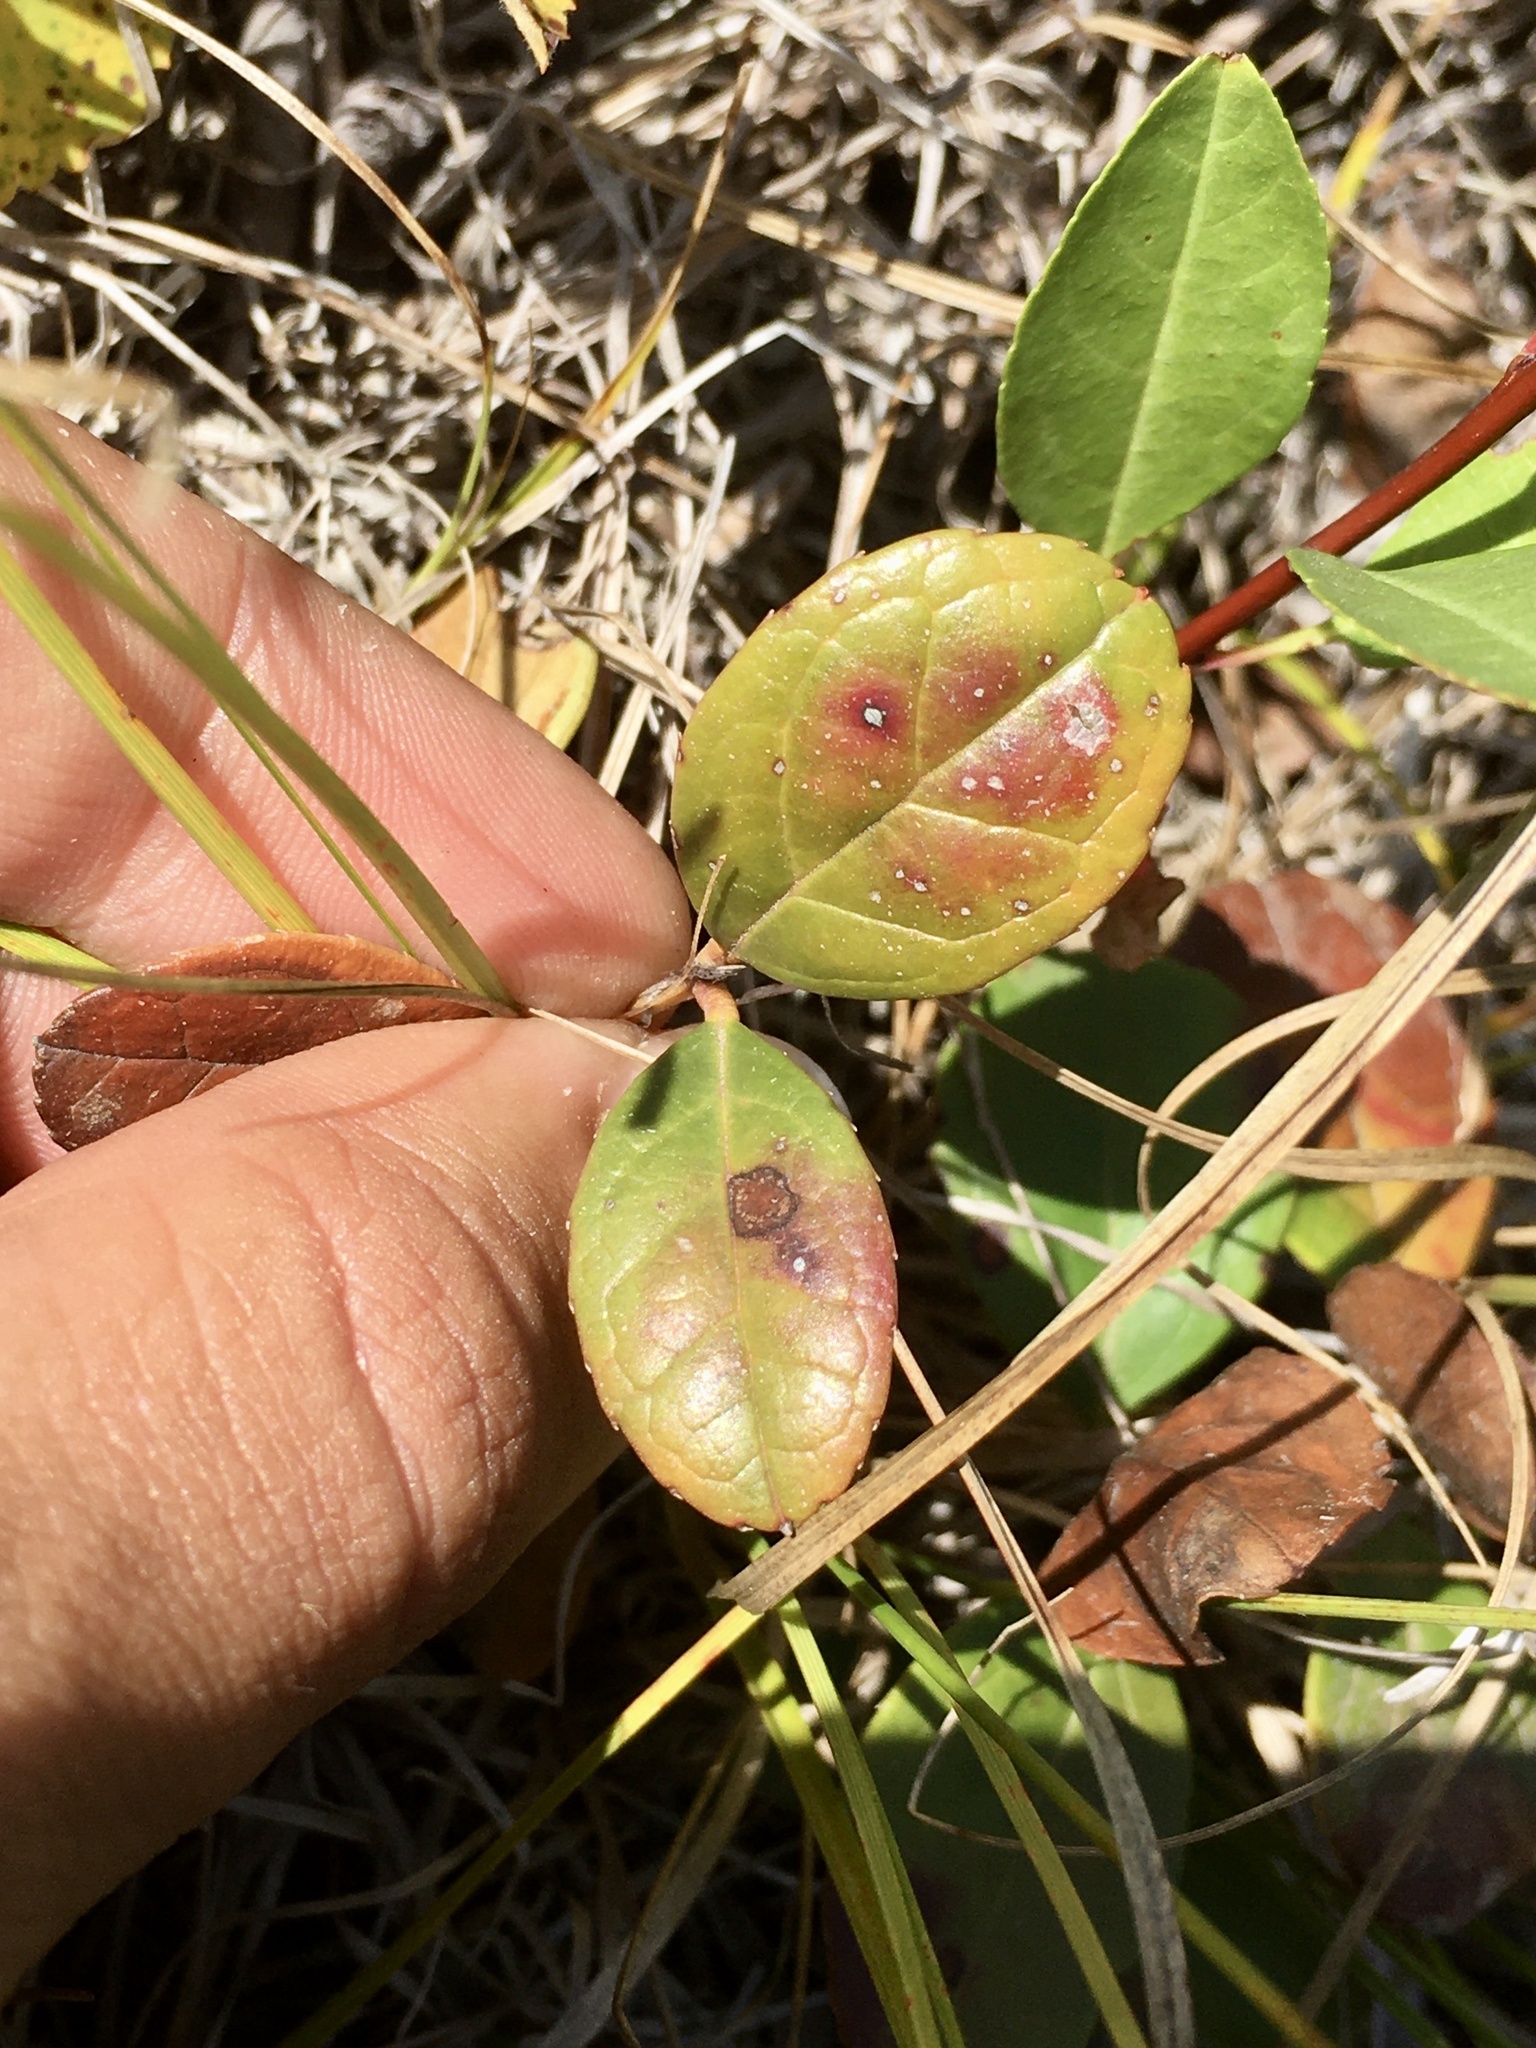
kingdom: Plantae
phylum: Tracheophyta
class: Magnoliopsida
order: Ericales
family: Ericaceae
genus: Gaultheria
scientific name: Gaultheria procumbens
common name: Checkerberry
